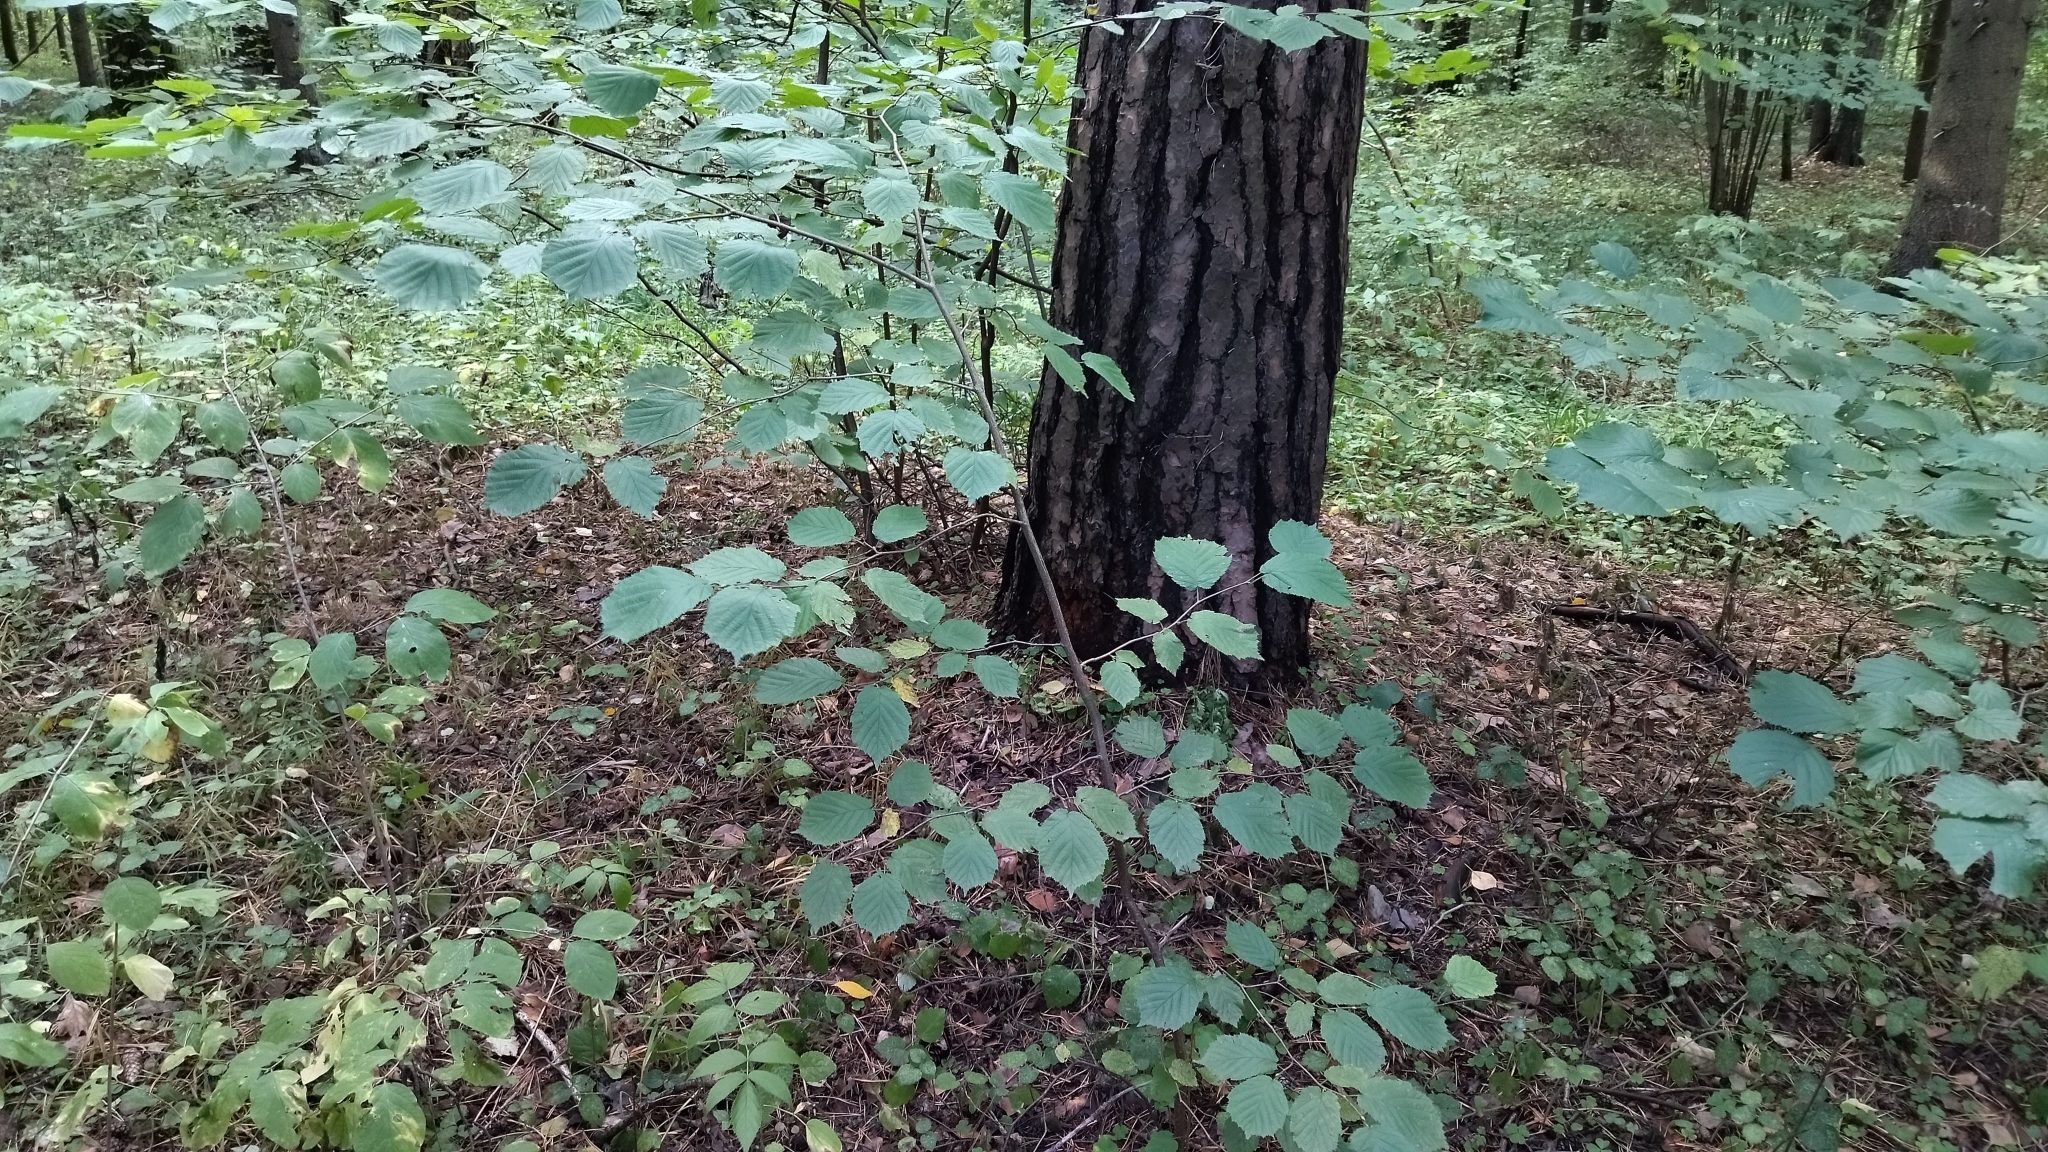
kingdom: Plantae
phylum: Tracheophyta
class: Magnoliopsida
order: Fagales
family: Betulaceae
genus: Corylus
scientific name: Corylus avellana
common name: European hazel
